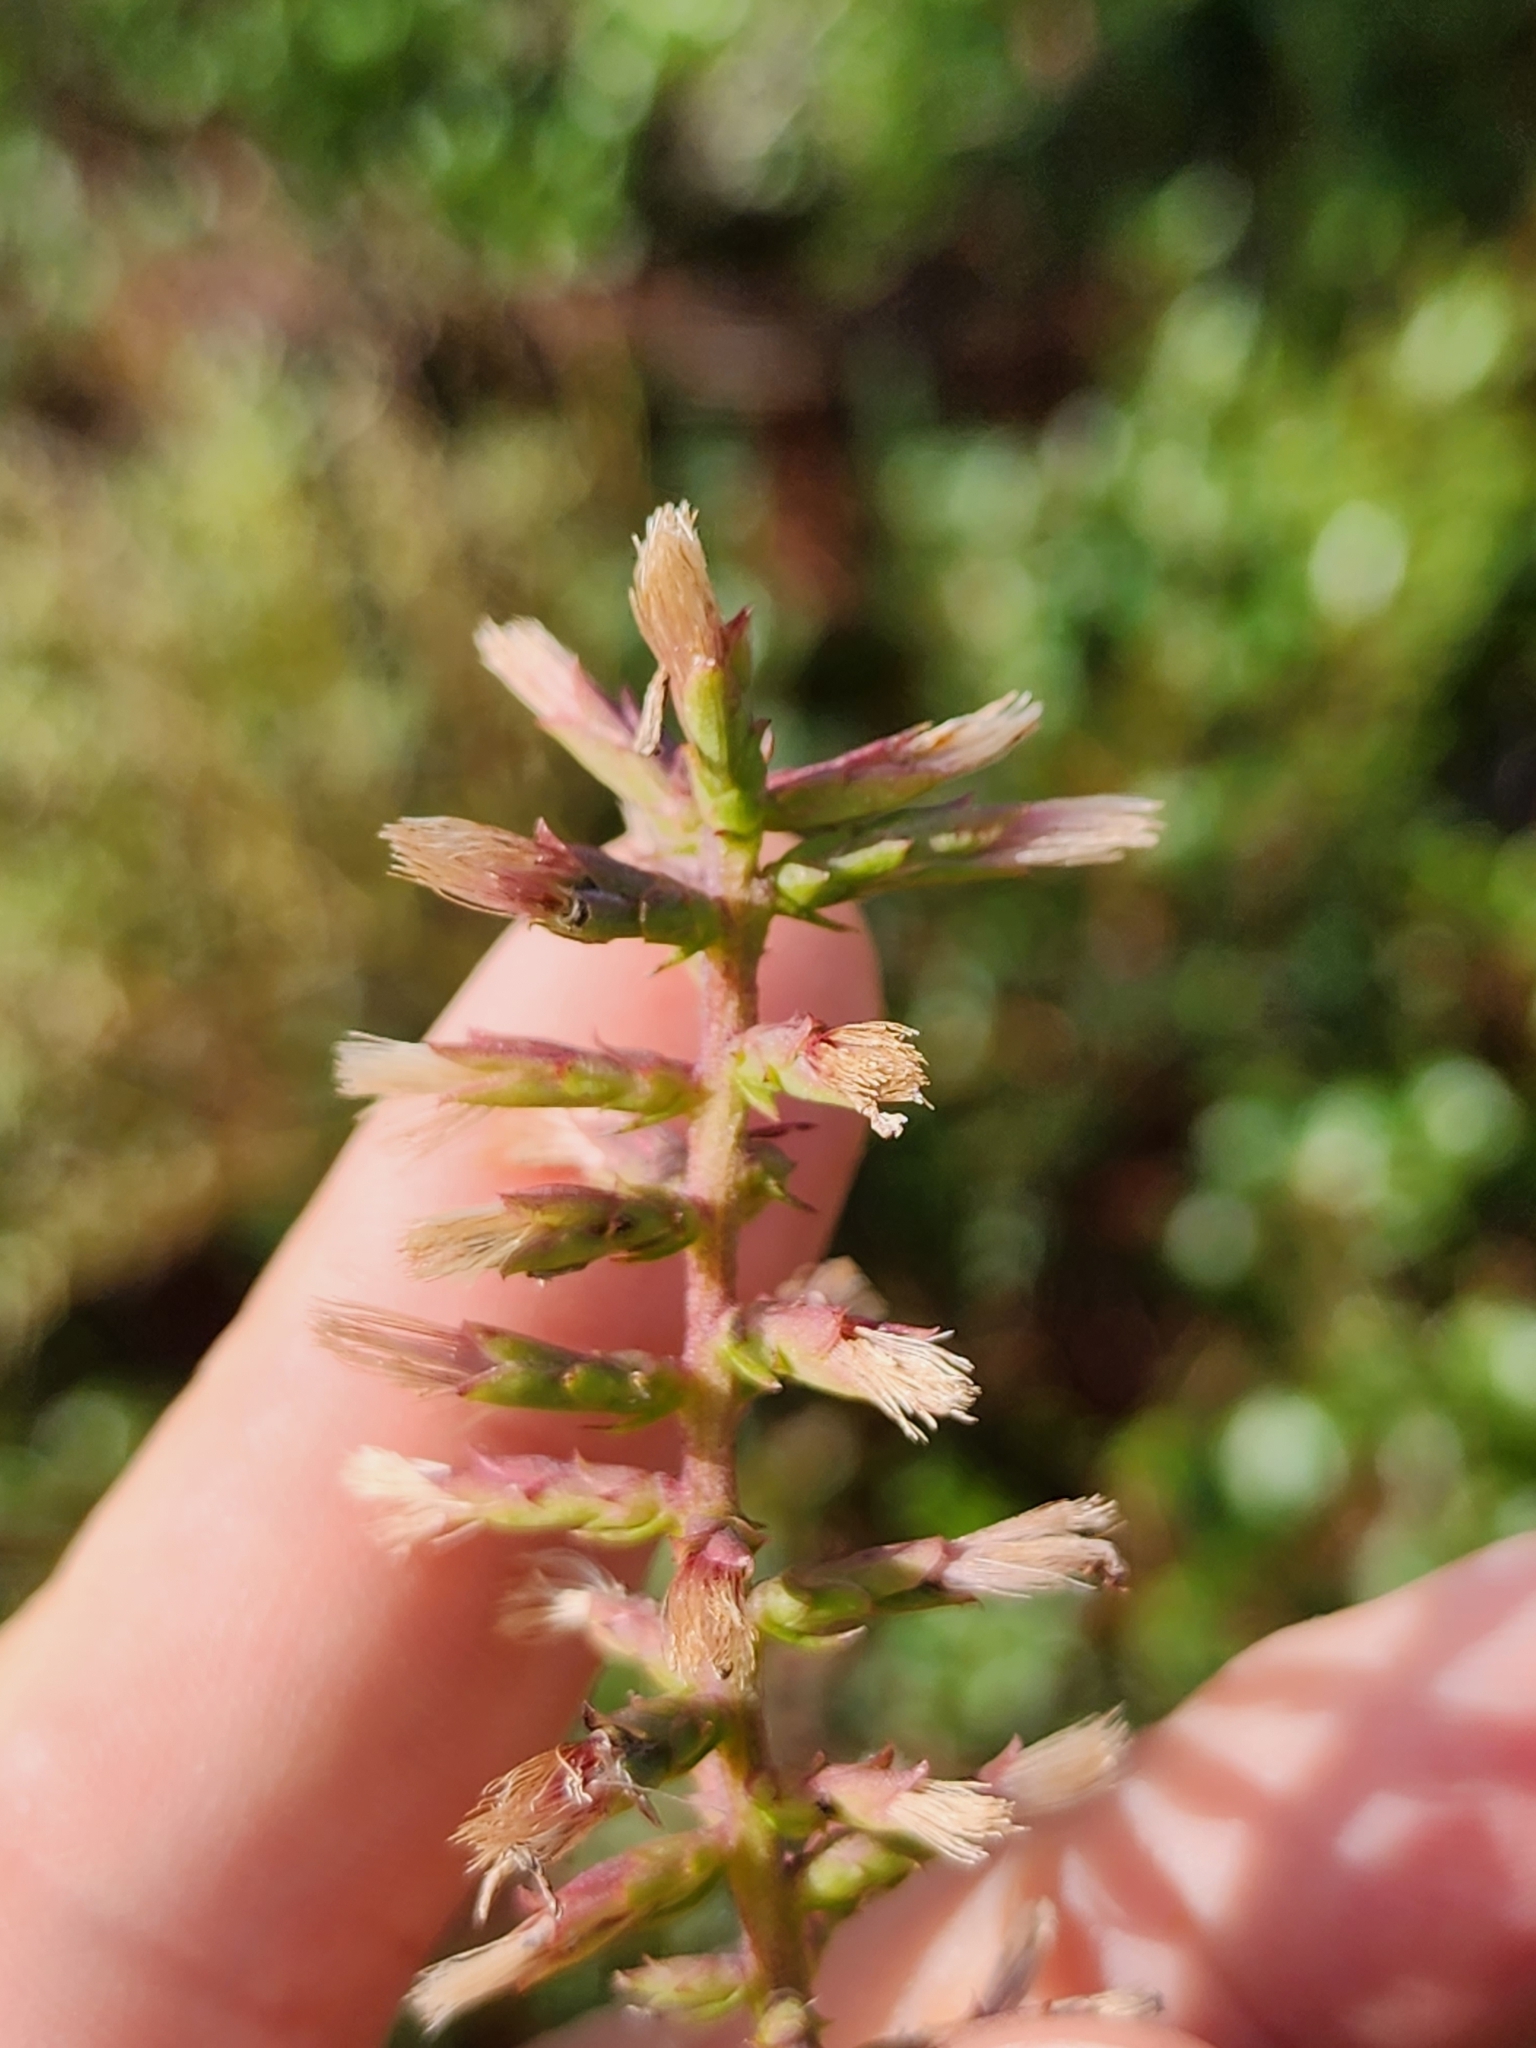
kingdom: Plantae
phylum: Tracheophyta
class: Magnoliopsida
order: Asterales
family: Asteraceae
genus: Liatris
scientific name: Liatris provincialis
